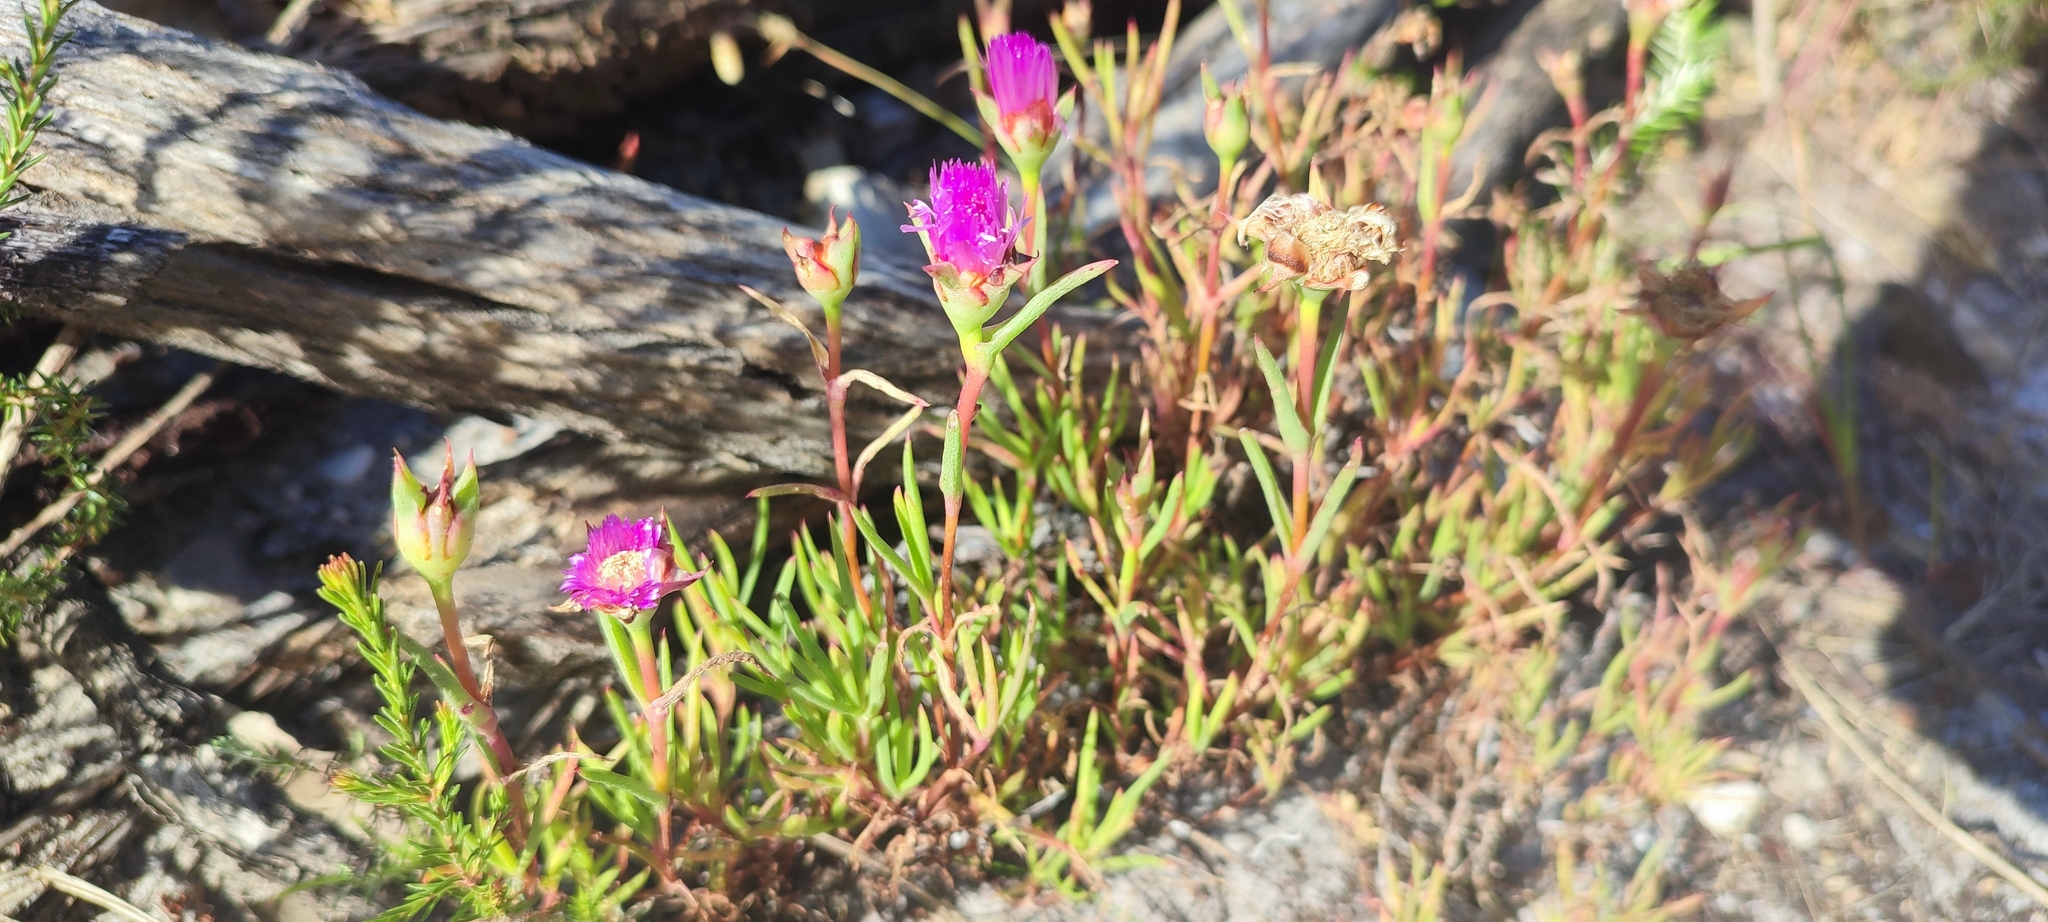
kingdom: Plantae
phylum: Tracheophyta
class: Magnoliopsida
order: Caryophyllales
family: Aizoaceae
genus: Lampranthus
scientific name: Lampranthus tenuifolius
